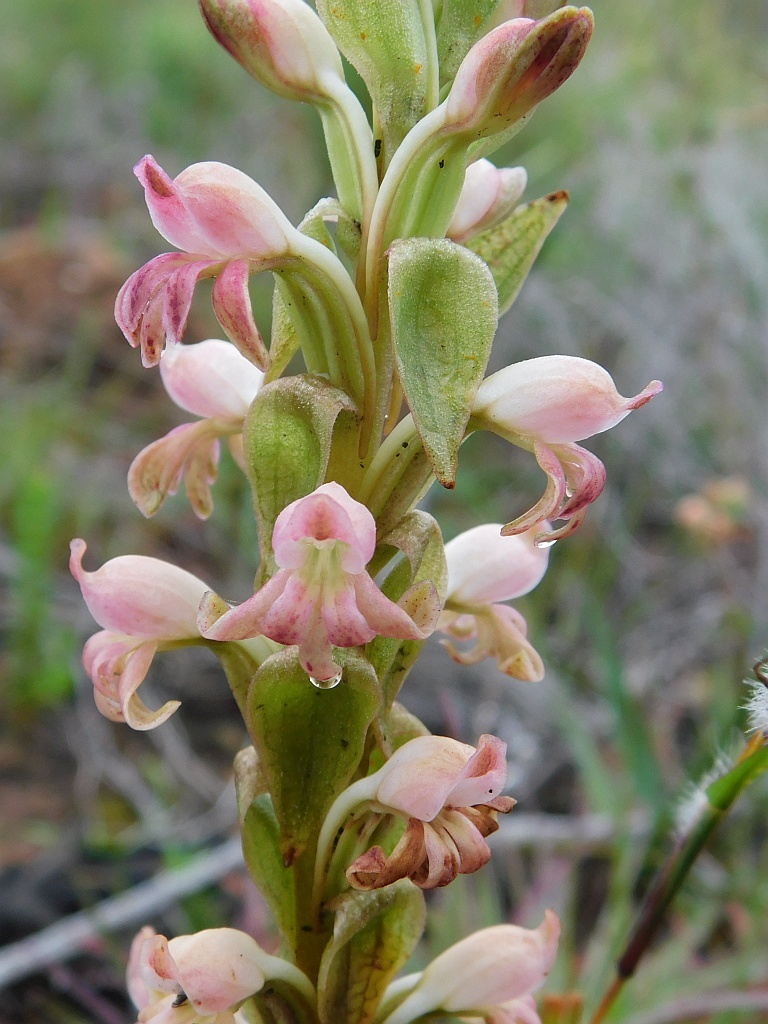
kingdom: Plantae
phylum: Tracheophyta
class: Liliopsida
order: Asparagales
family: Orchidaceae
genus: Satyrium
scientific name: Satyrium
